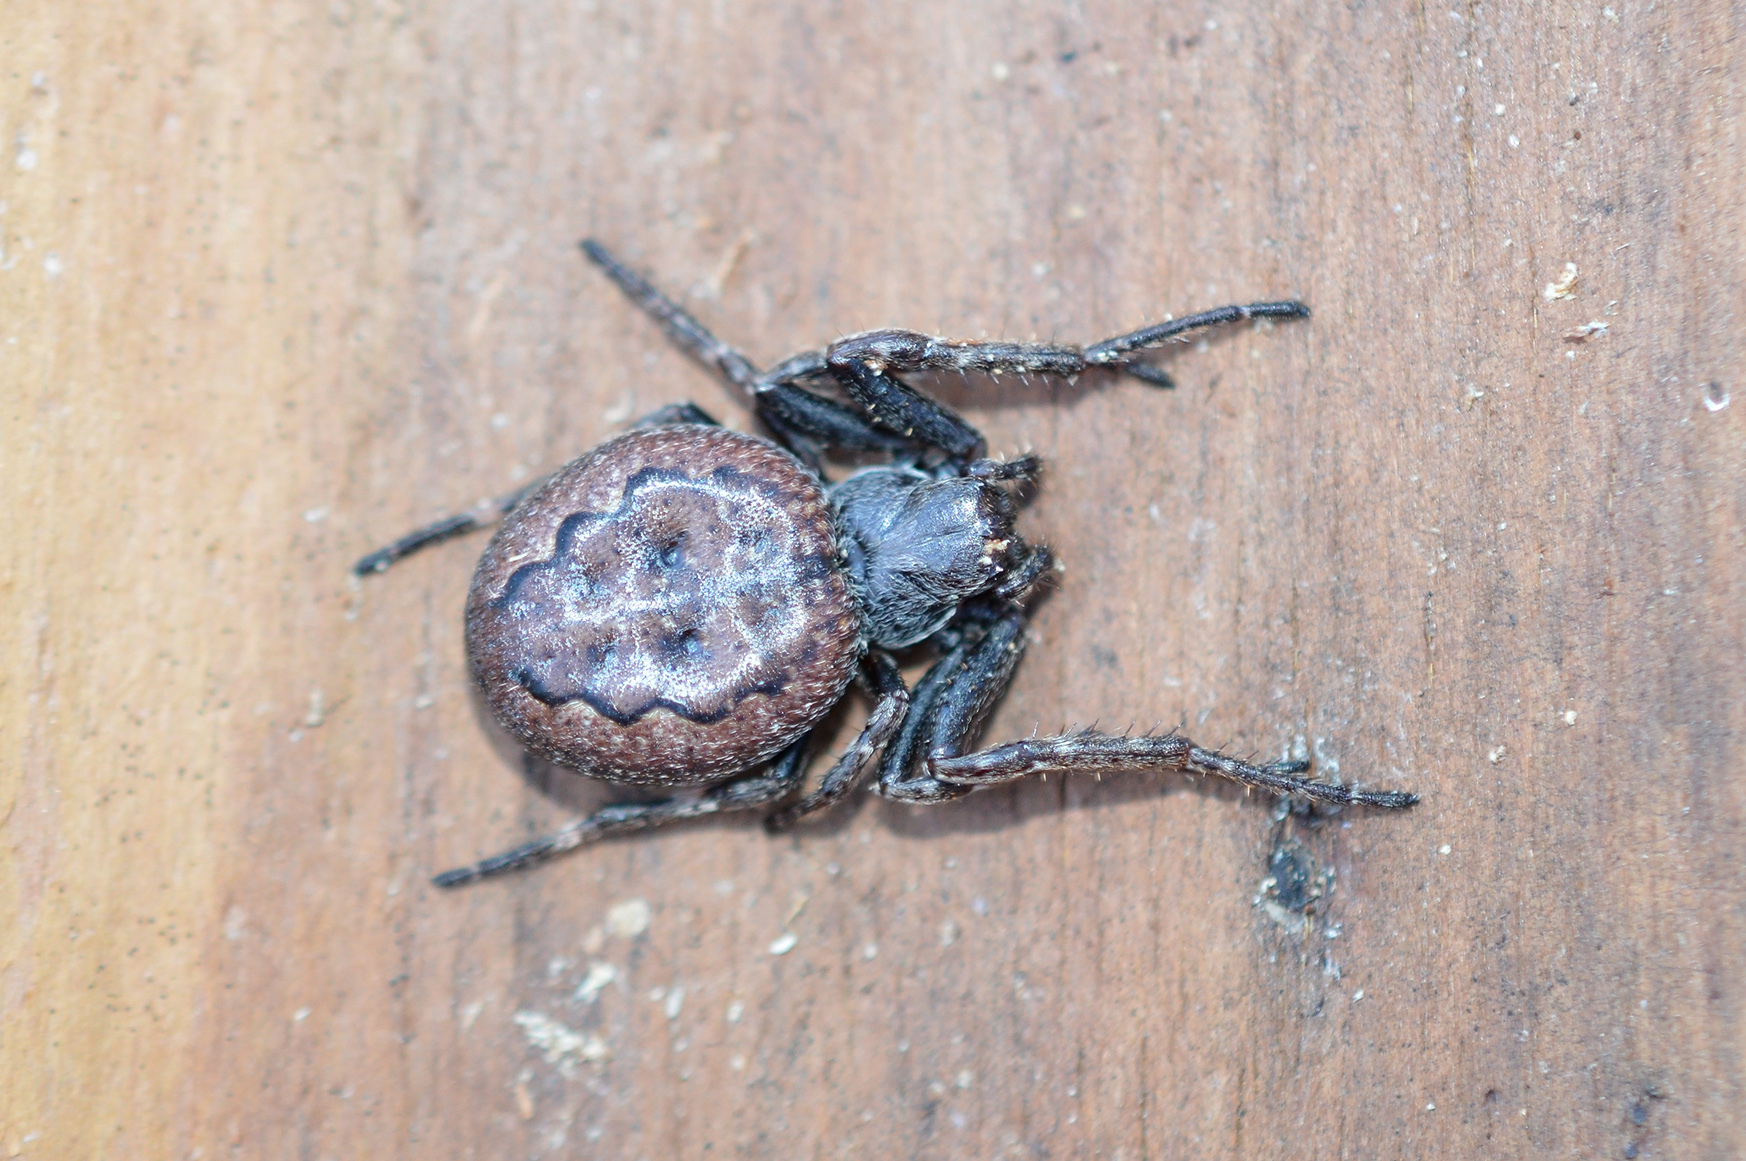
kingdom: Animalia
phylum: Arthropoda
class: Arachnida
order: Araneae
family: Araneidae
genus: Nuctenea
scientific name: Nuctenea umbratica
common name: Toad spider
